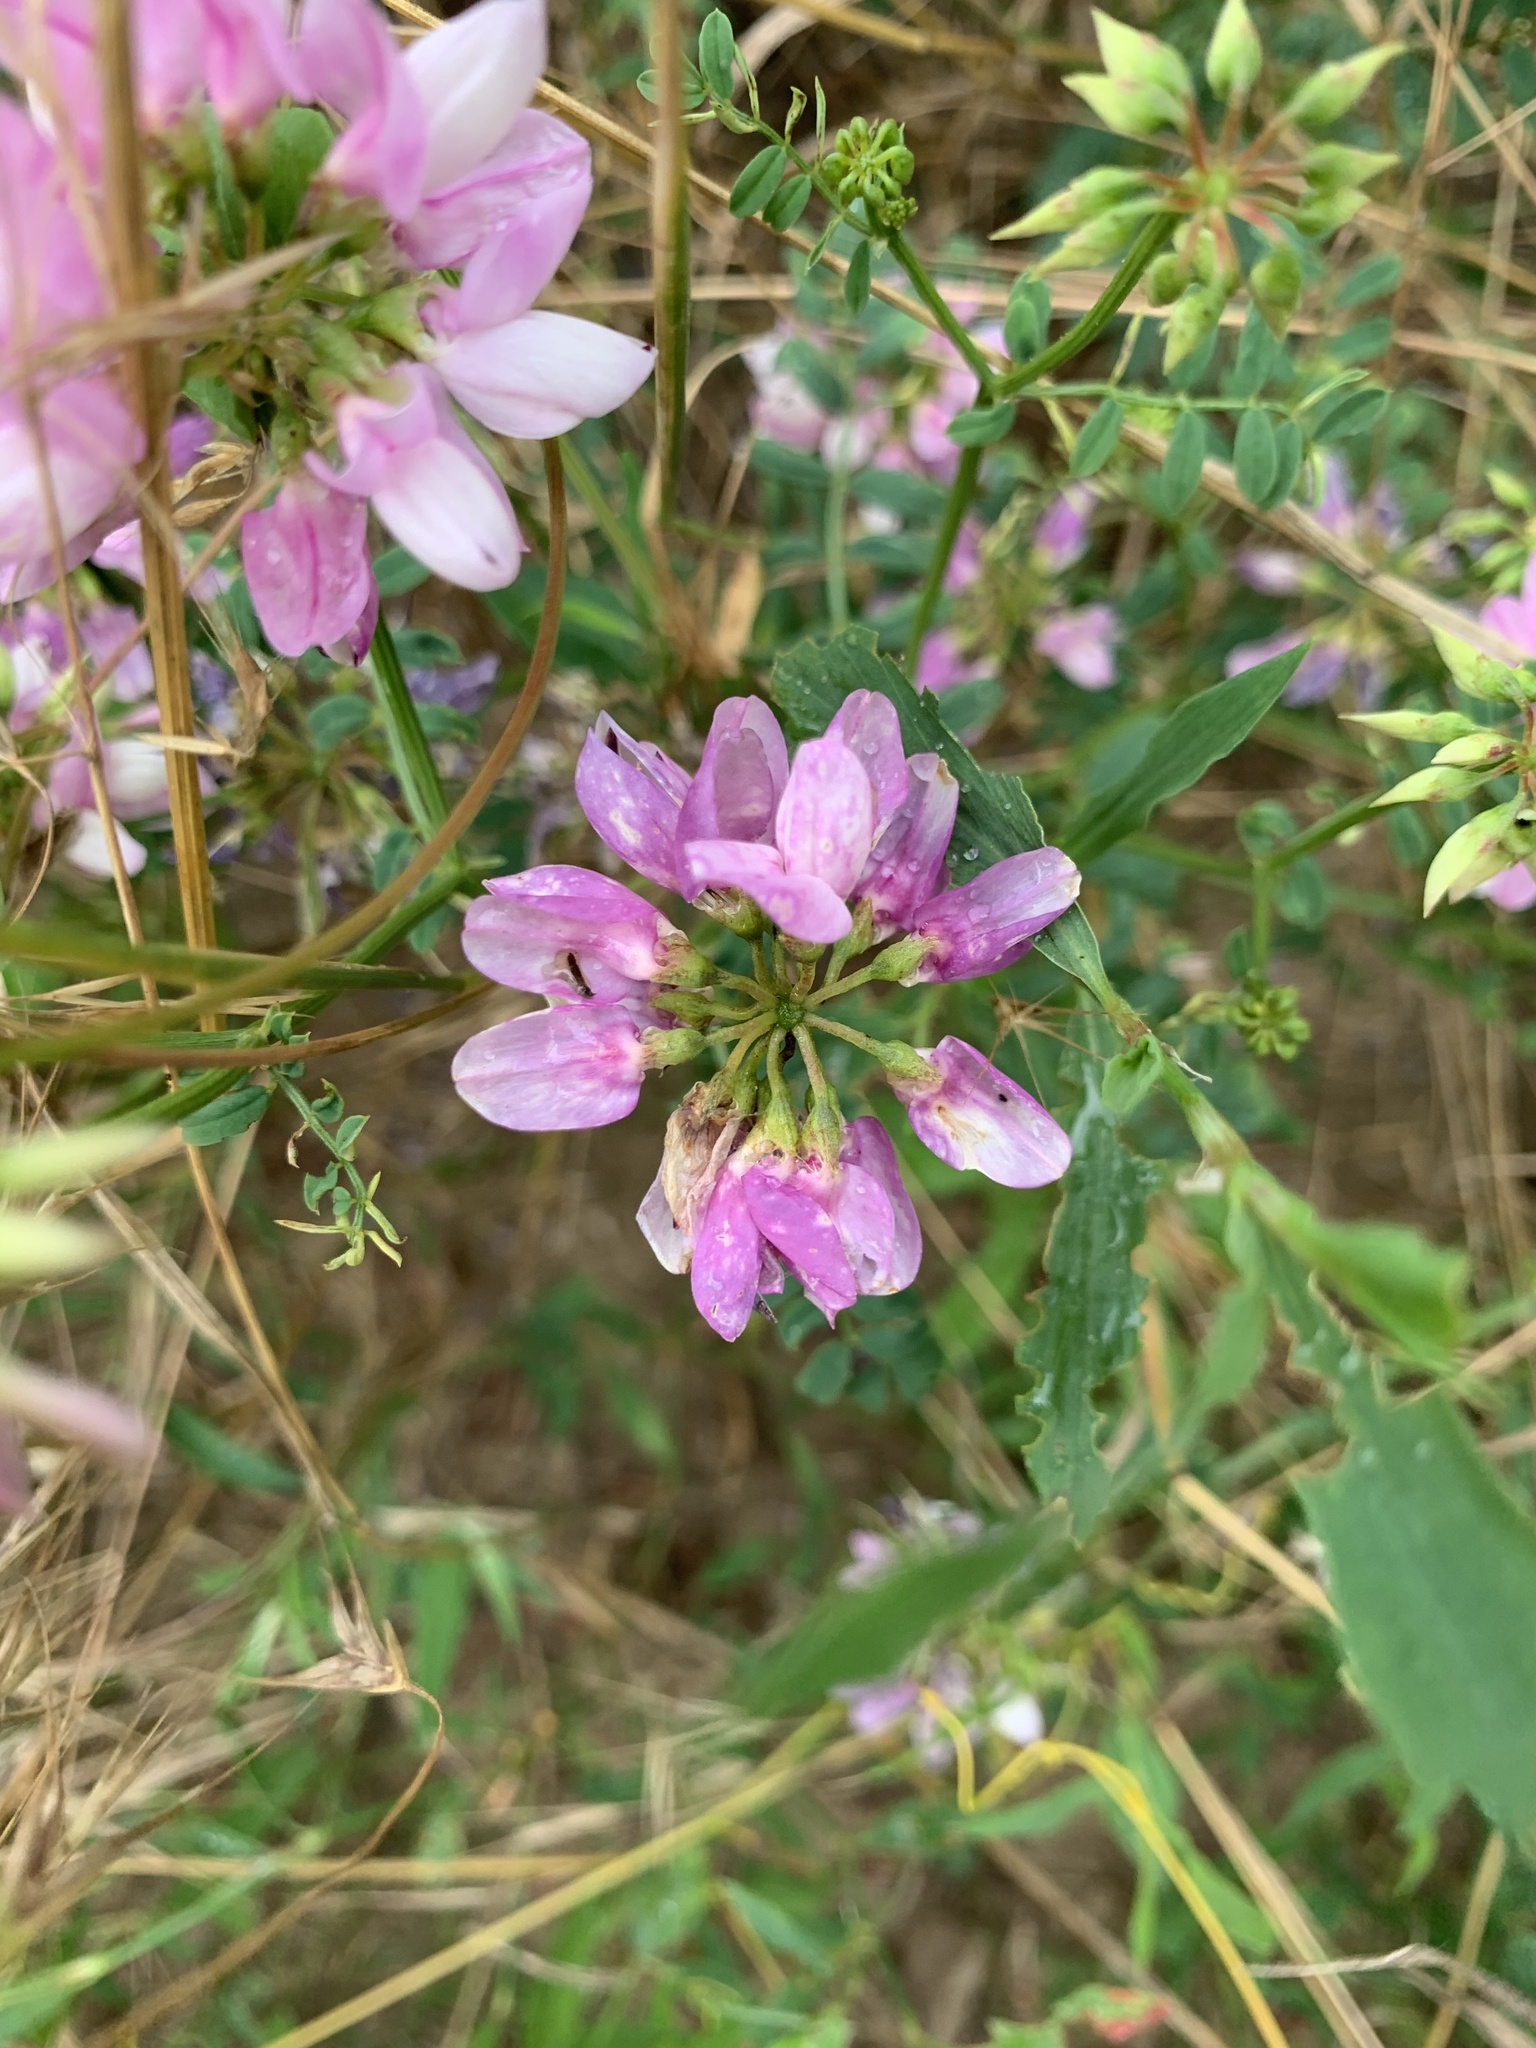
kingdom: Plantae
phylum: Tracheophyta
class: Magnoliopsida
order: Fabales
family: Fabaceae
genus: Coronilla
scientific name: Coronilla varia
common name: Crownvetch
